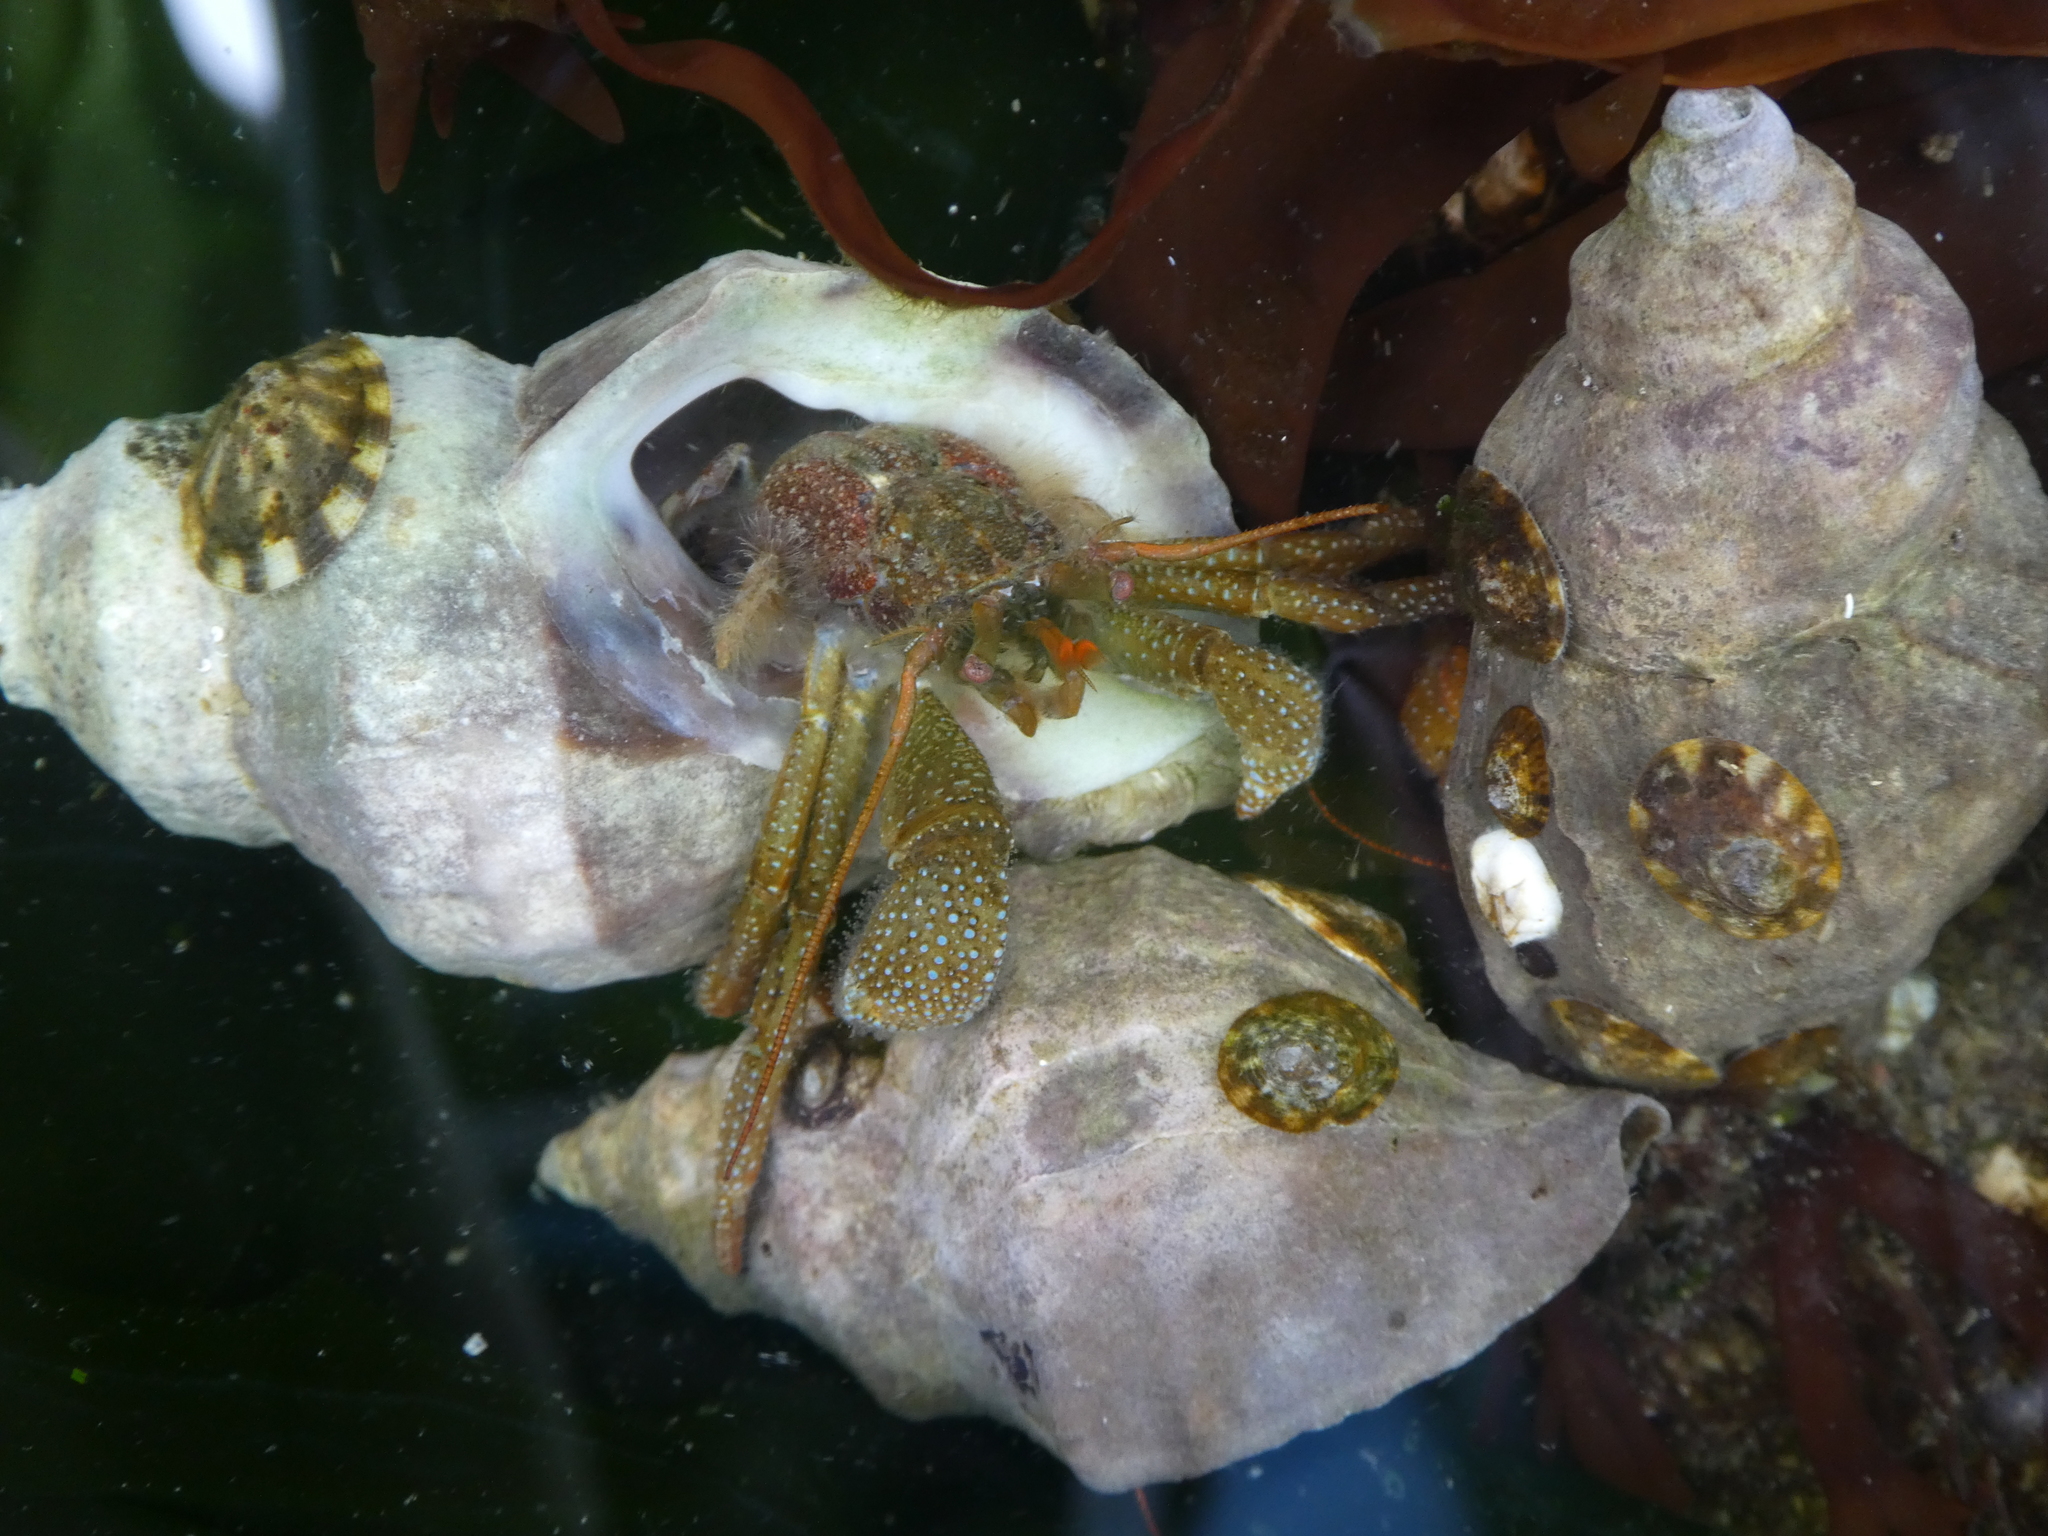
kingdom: Animalia
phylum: Arthropoda
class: Malacostraca
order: Decapoda
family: Paguridae
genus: Pagurus
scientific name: Pagurus granosimanus
